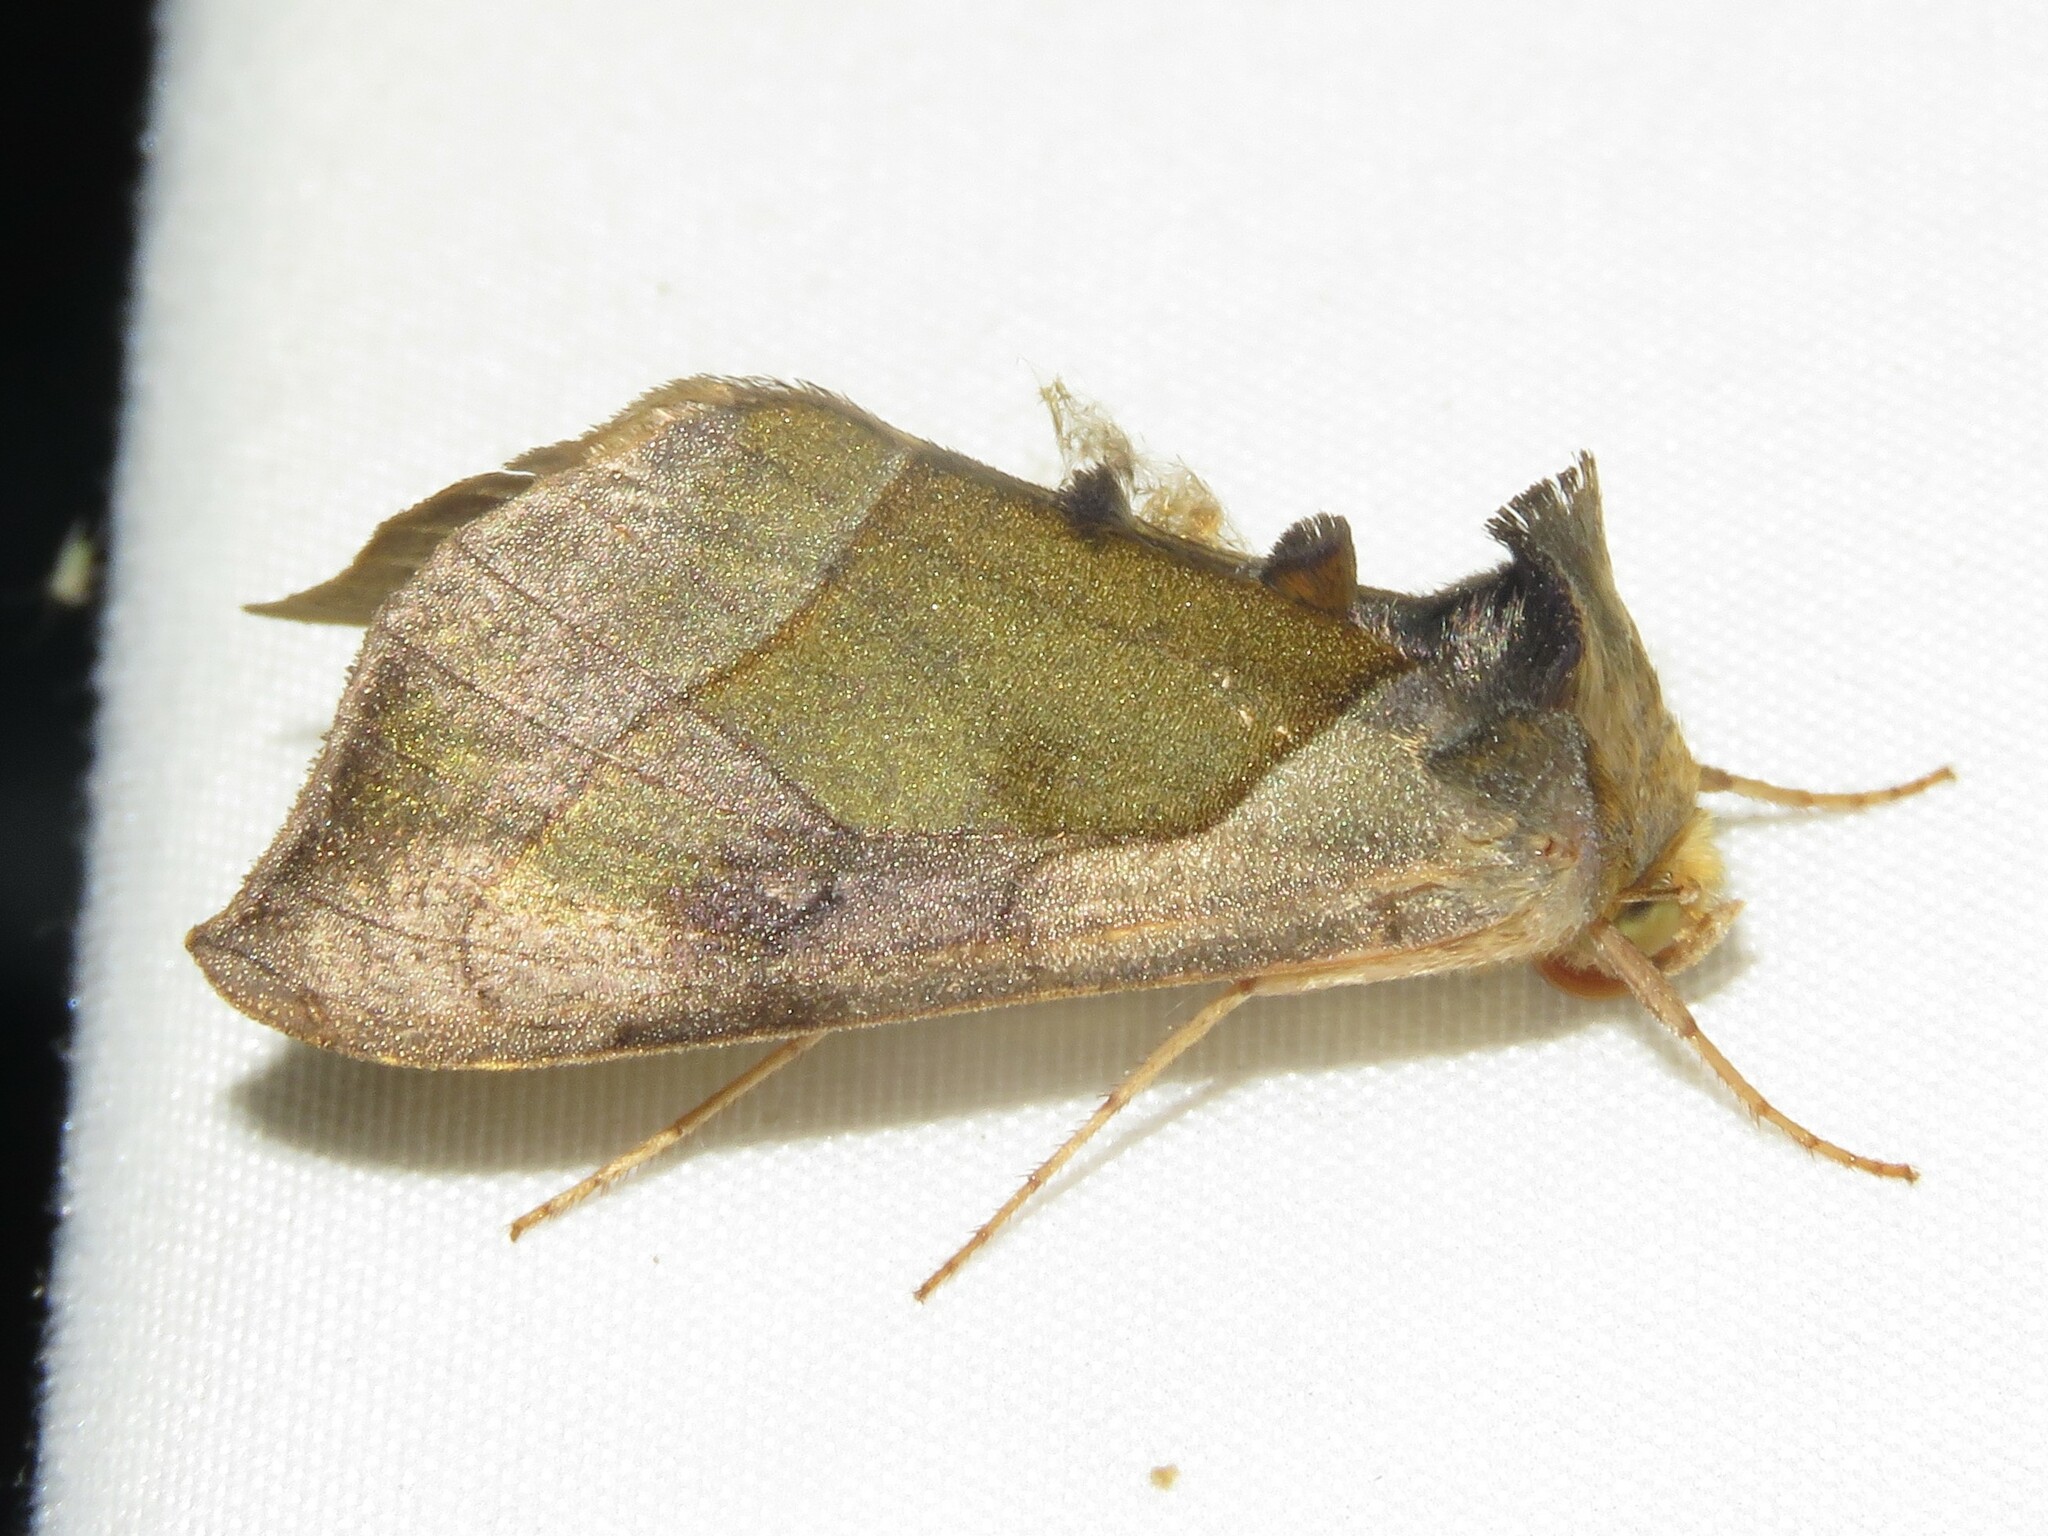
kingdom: Animalia
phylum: Arthropoda
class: Insecta
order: Lepidoptera
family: Noctuidae
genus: Diachrysia
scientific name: Diachrysia balluca
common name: Green-patched looper moth
